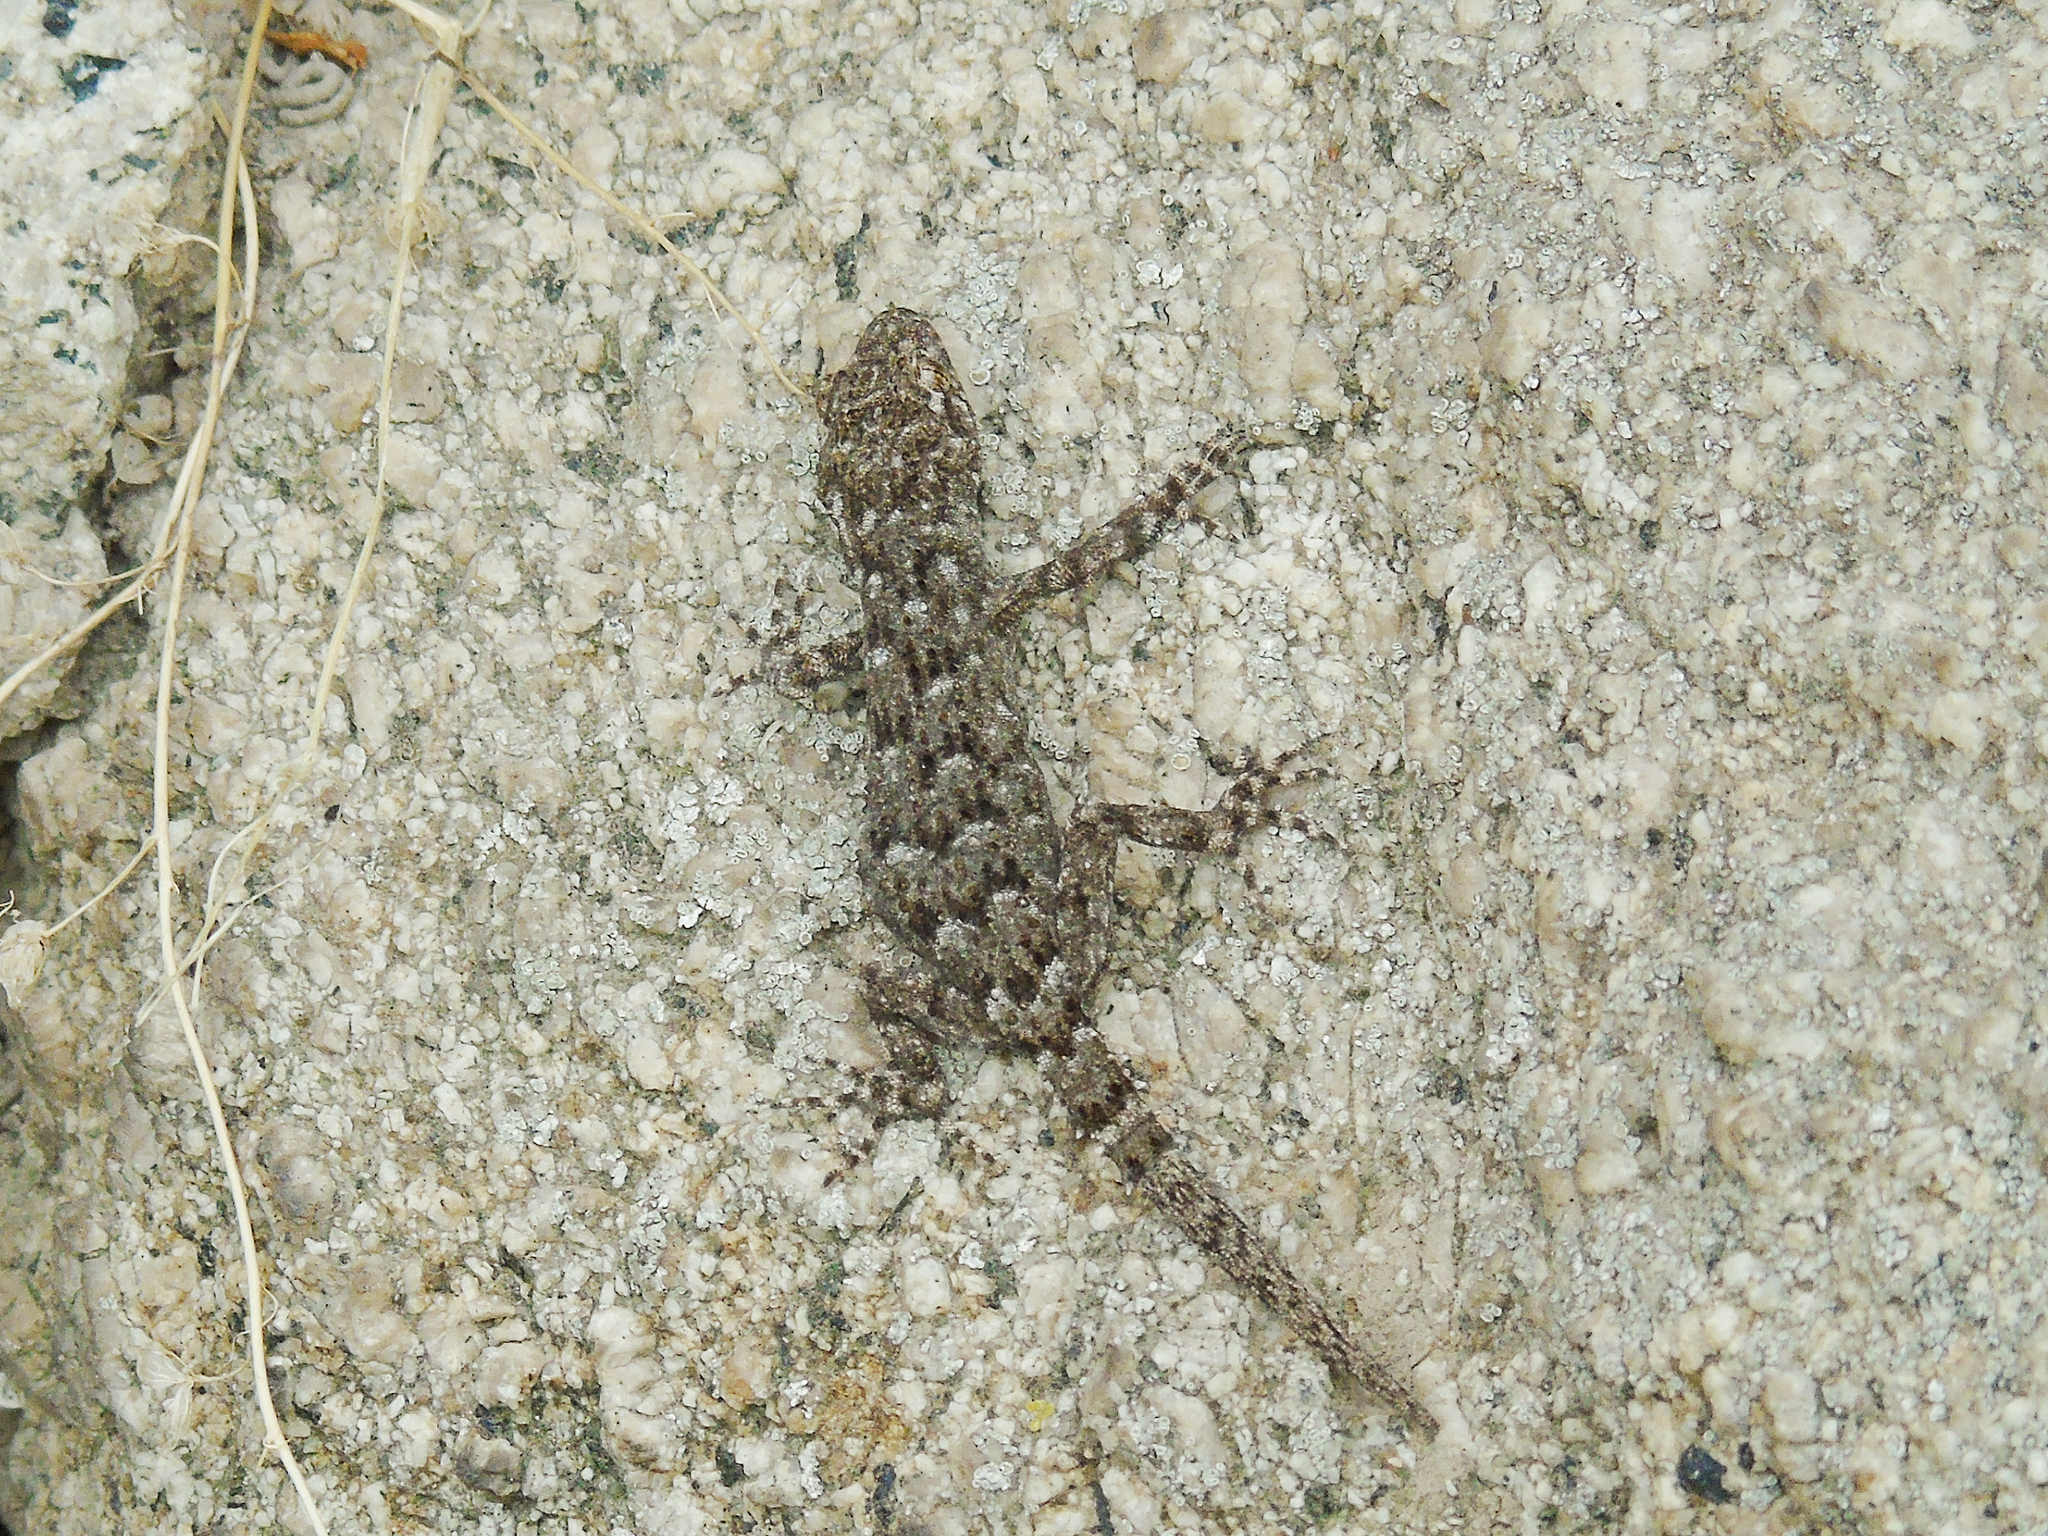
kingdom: Animalia
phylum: Chordata
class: Squamata
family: Gekkonidae
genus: Mediodactylus
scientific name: Mediodactylus kotschyi
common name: Kotschy's gecko
